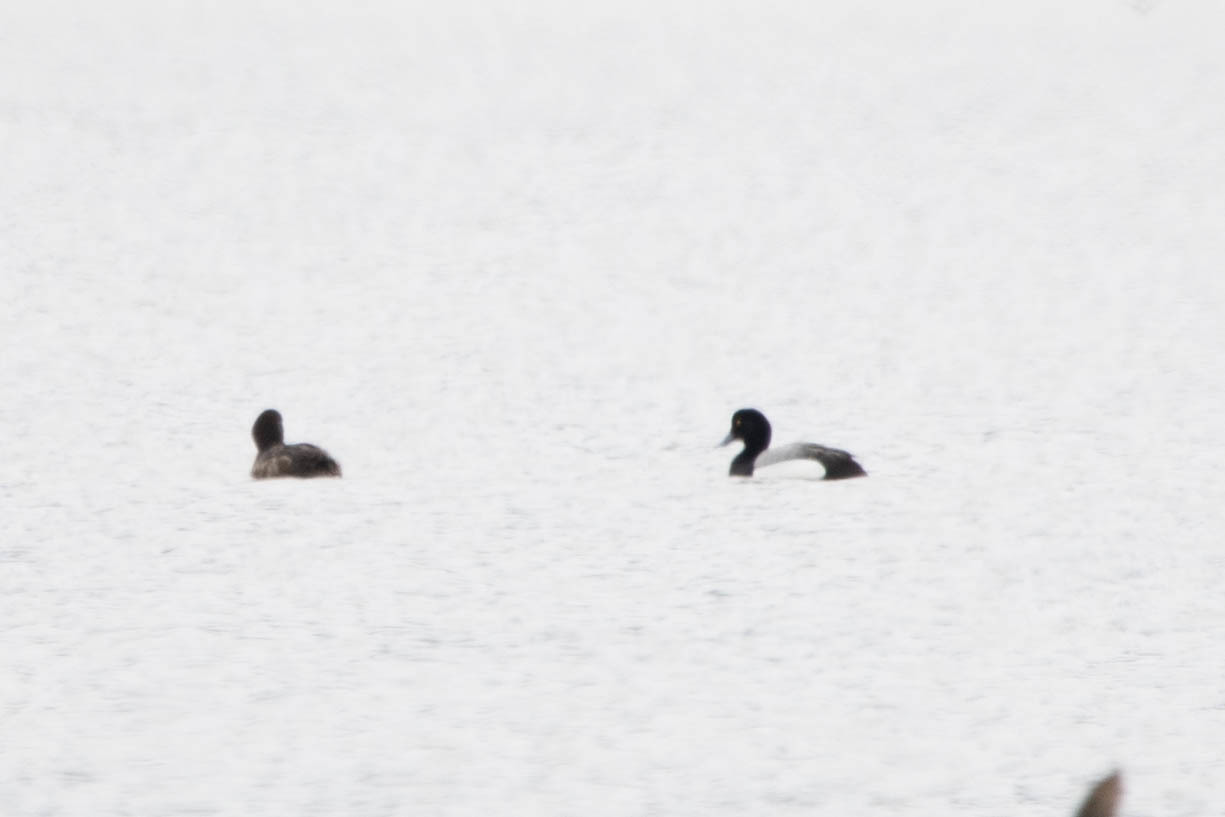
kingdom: Animalia
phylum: Chordata
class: Aves
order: Anseriformes
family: Anatidae
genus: Aythya
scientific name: Aythya marila
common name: Greater scaup
